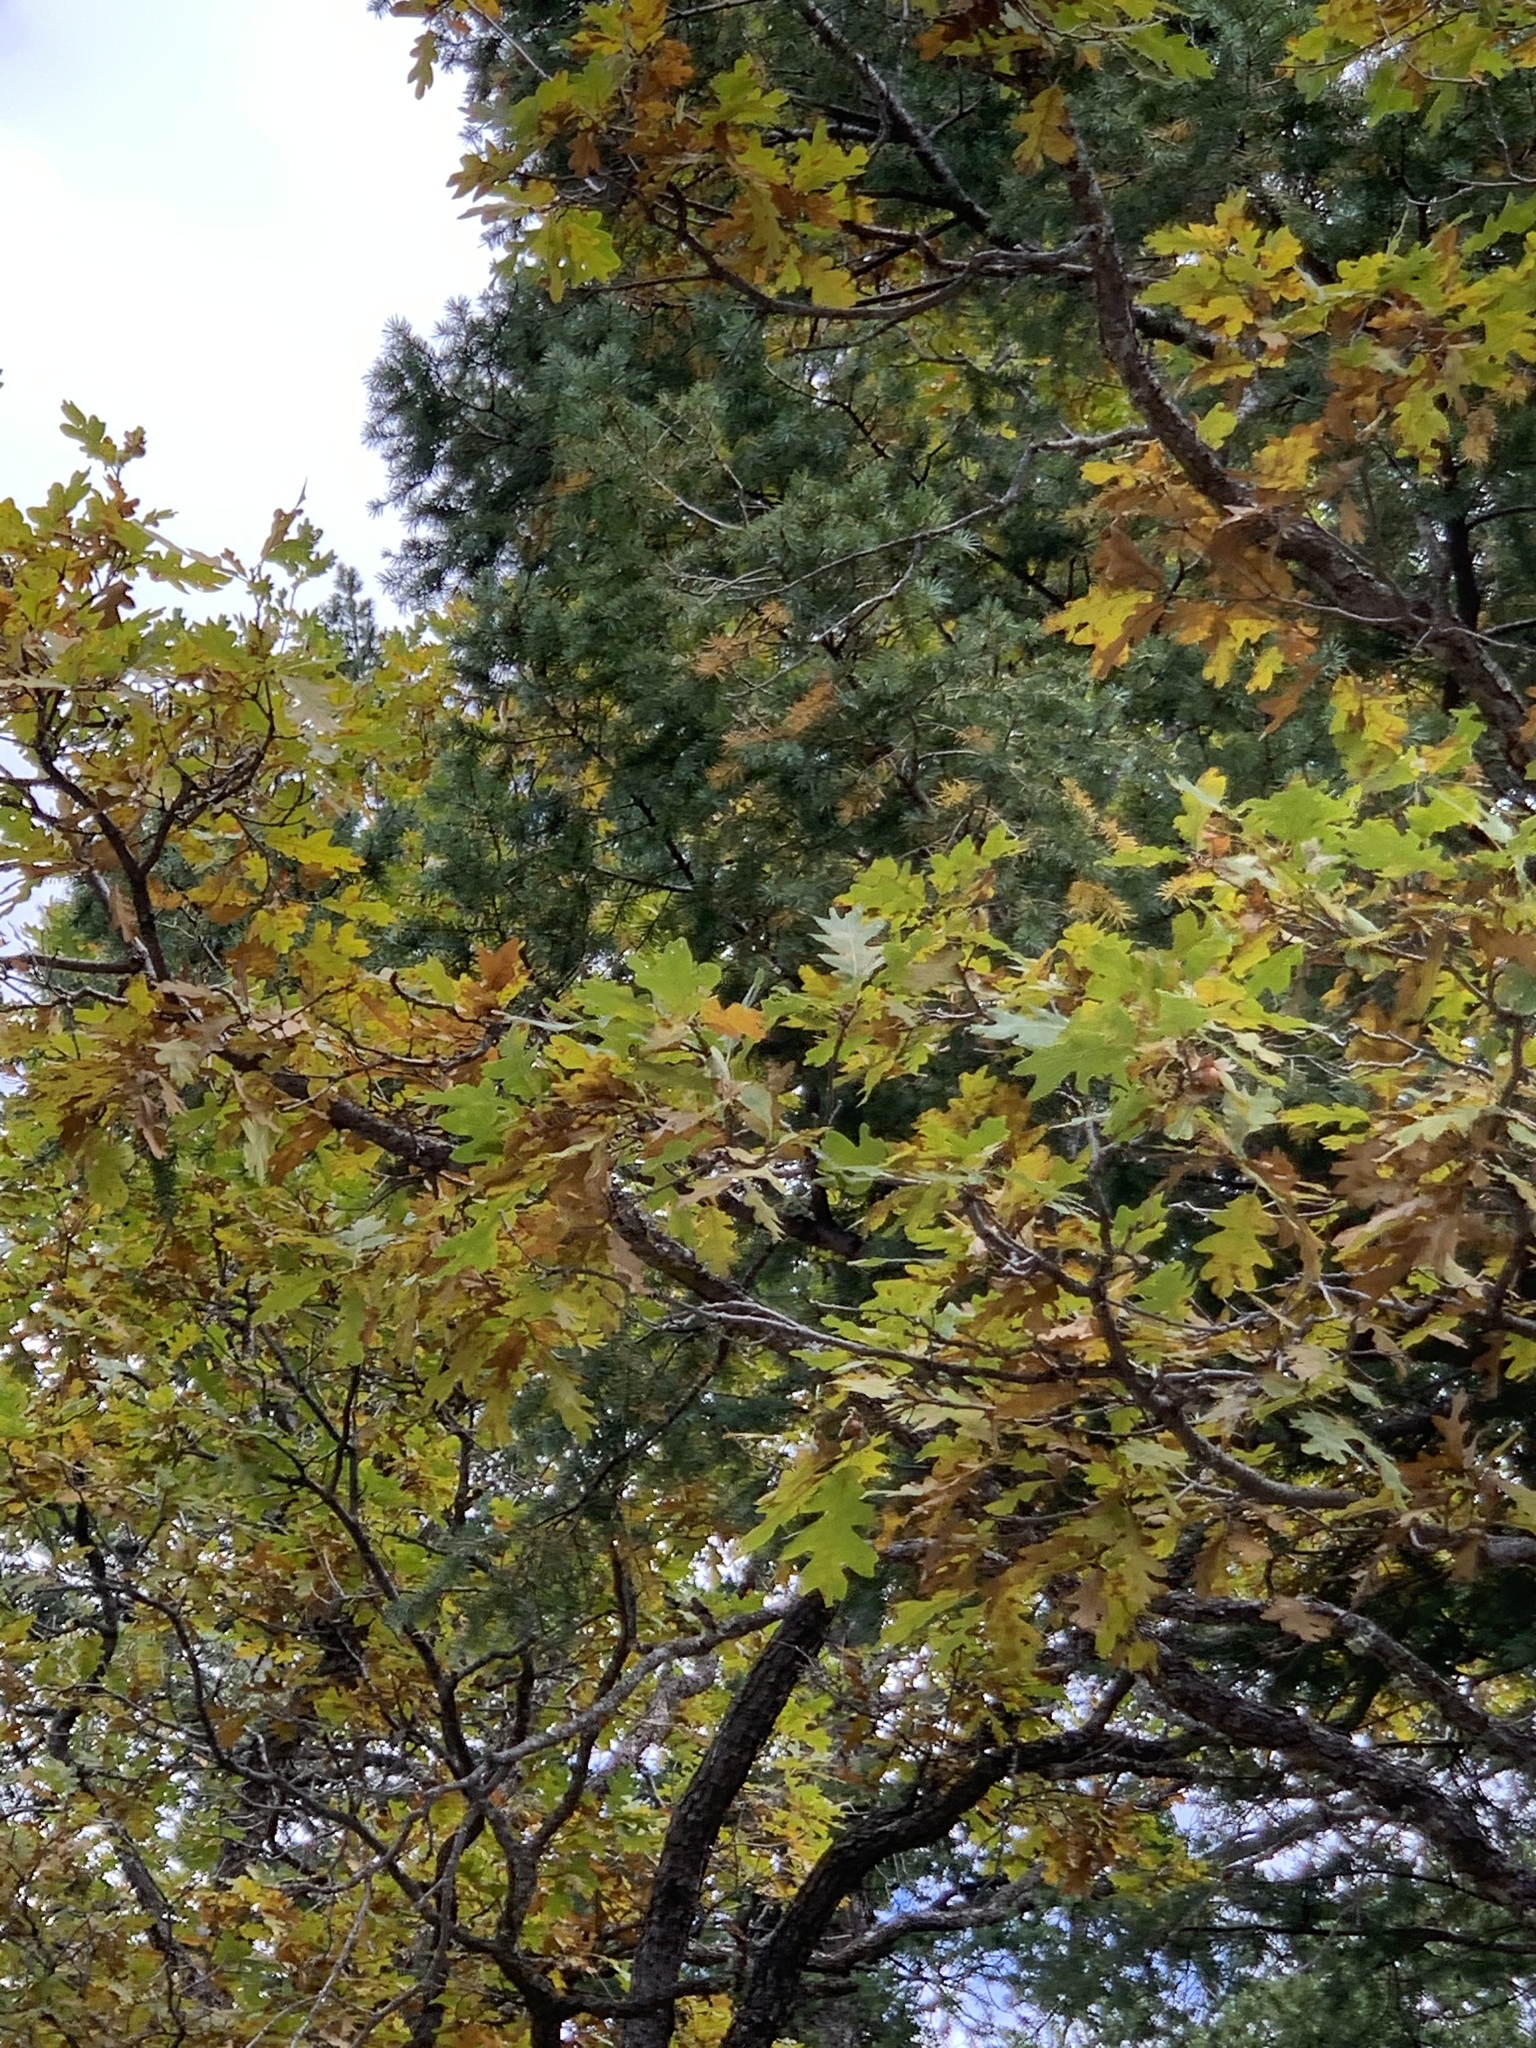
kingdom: Plantae
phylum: Tracheophyta
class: Magnoliopsida
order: Fagales
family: Fagaceae
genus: Quercus
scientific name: Quercus gambelii
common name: Gambel oak
